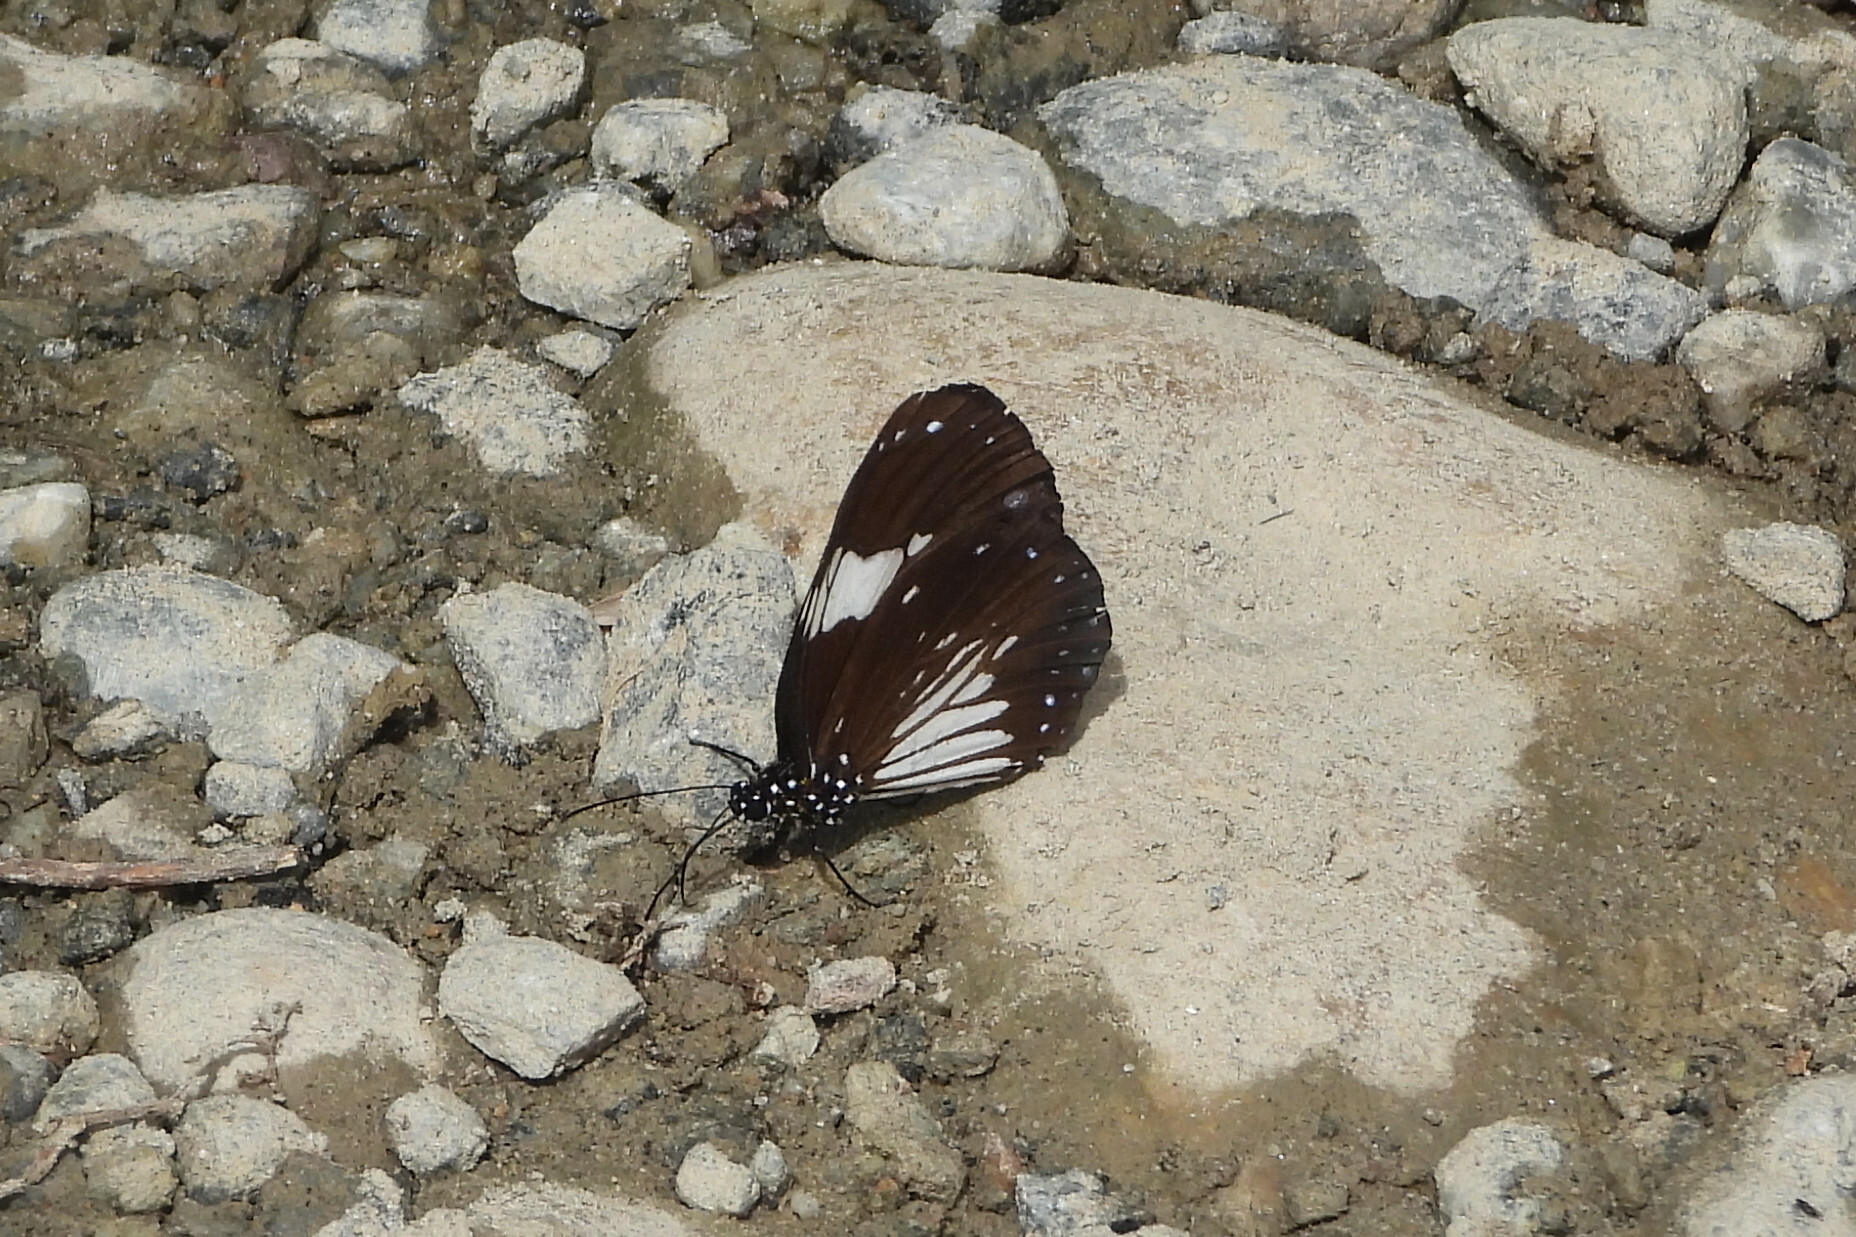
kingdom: Animalia
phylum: Arthropoda
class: Insecta
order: Lepidoptera
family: Nymphalidae
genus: Euploea
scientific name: Euploea radamanthus
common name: Magpie crow butterfly
